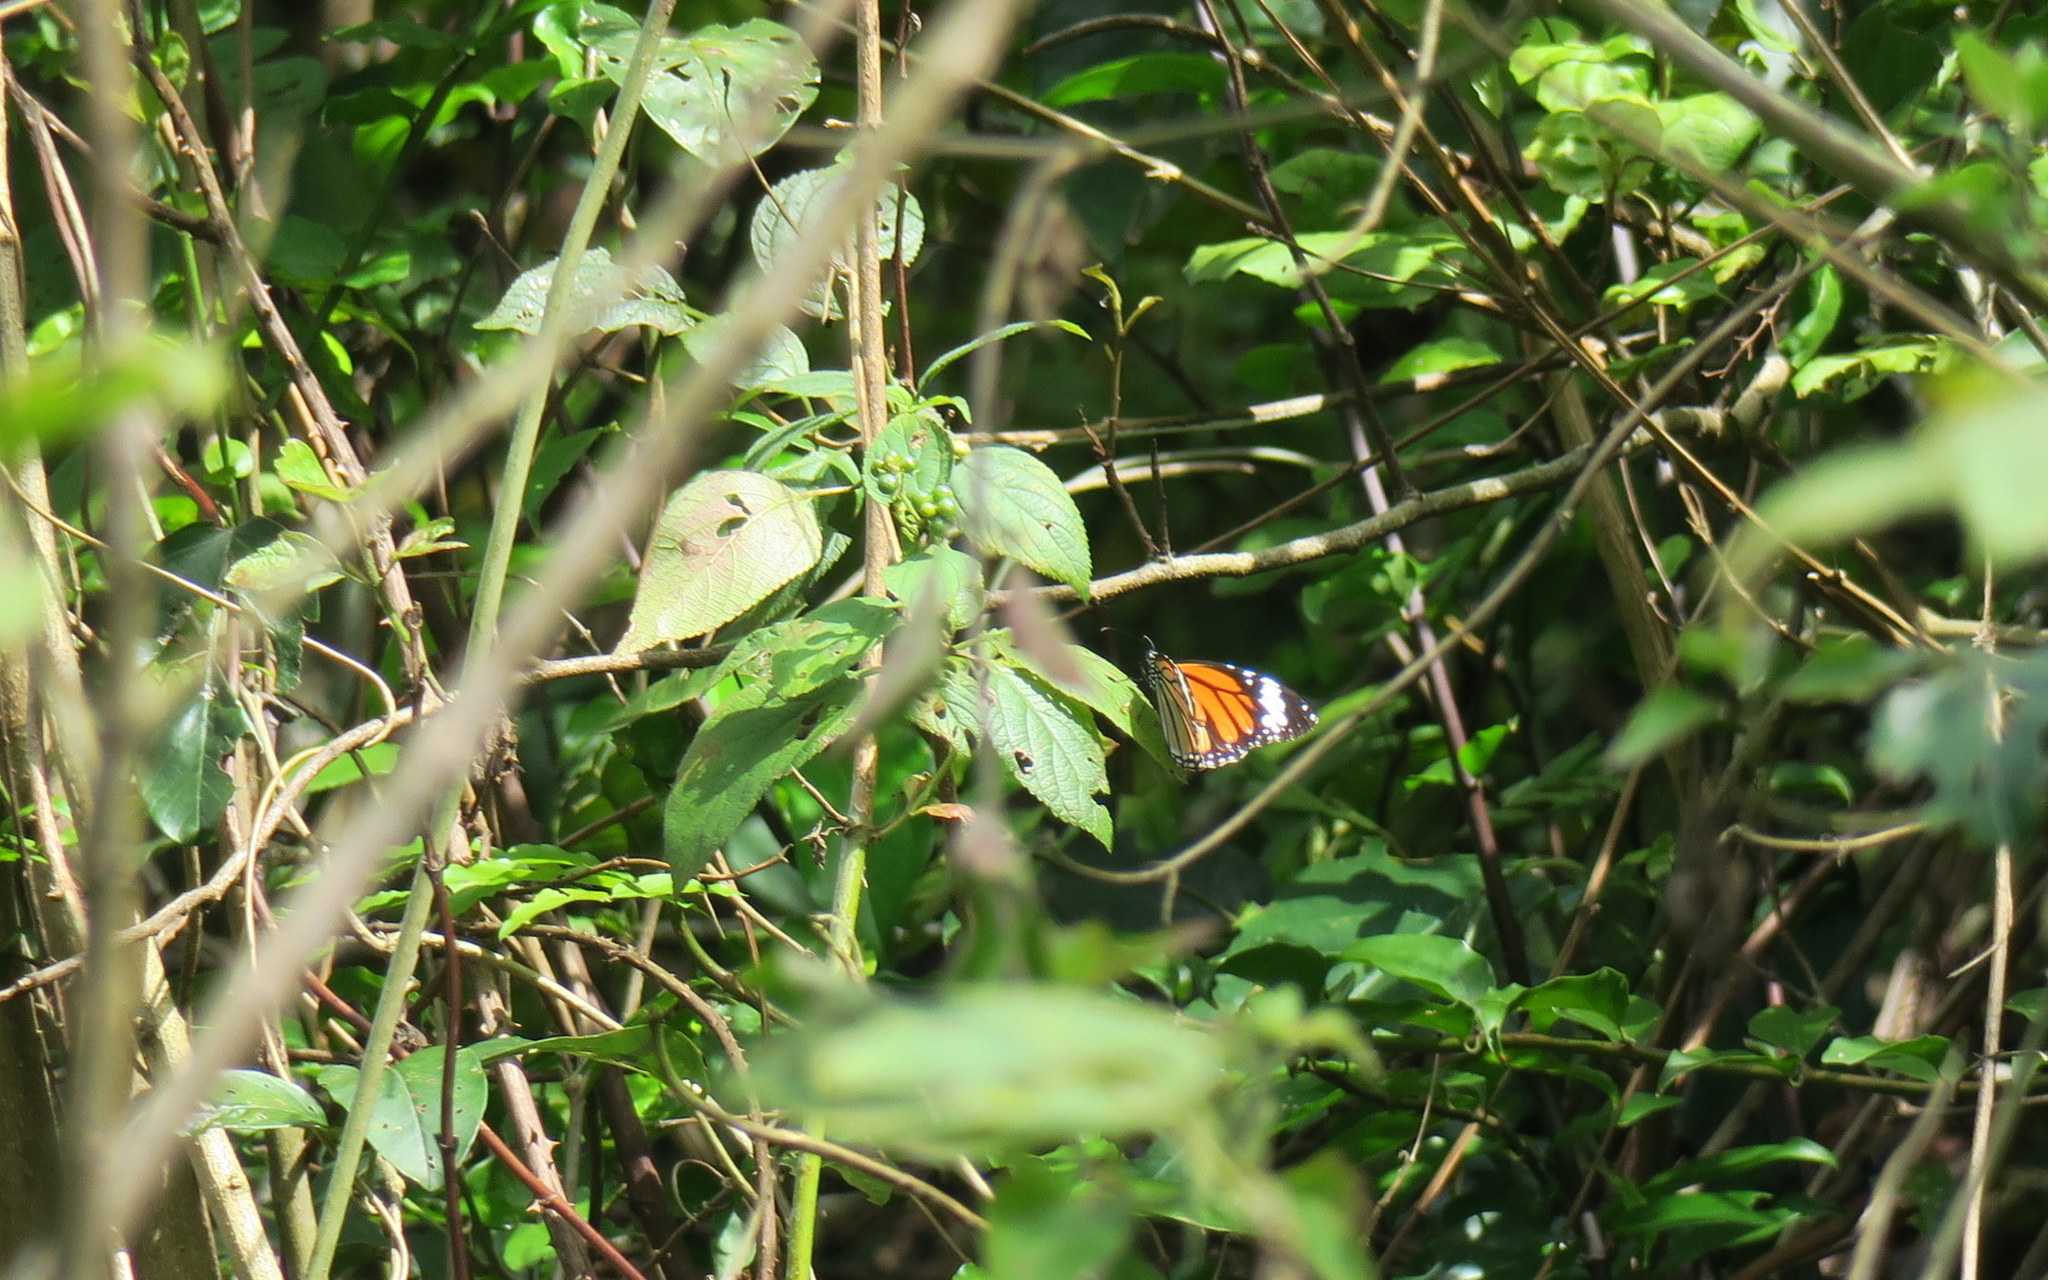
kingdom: Animalia
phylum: Arthropoda
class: Insecta
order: Lepidoptera
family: Nymphalidae
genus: Danaus
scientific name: Danaus genutia
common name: Common tiger butterfly
